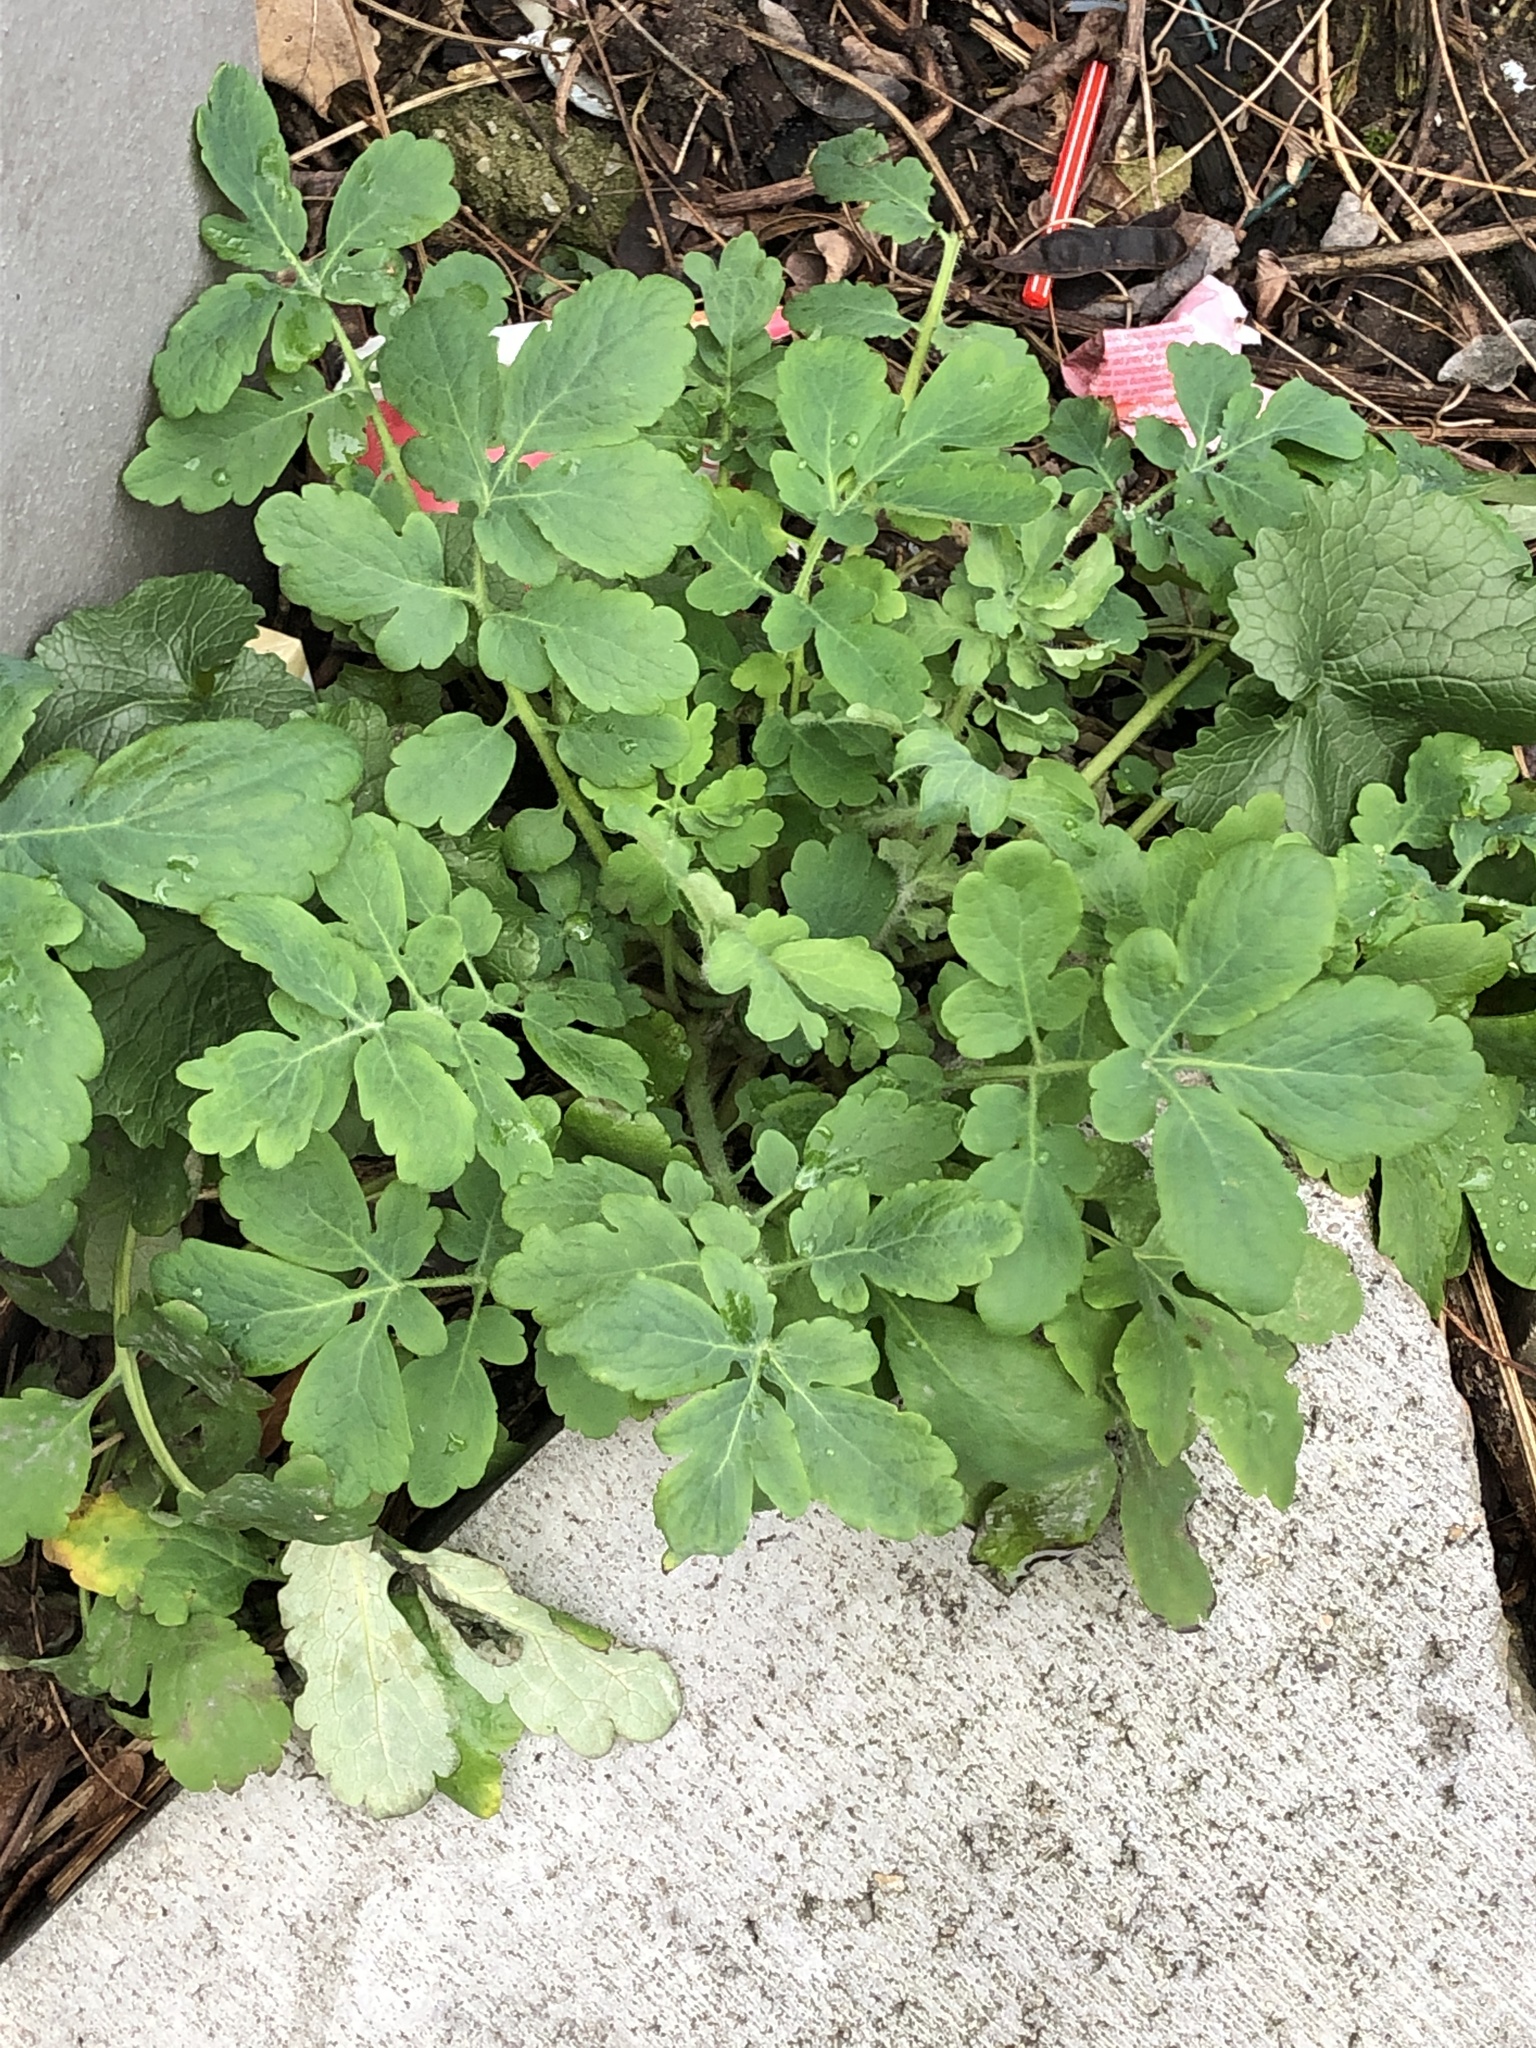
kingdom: Plantae
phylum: Tracheophyta
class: Magnoliopsida
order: Ranunculales
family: Papaveraceae
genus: Chelidonium
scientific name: Chelidonium majus
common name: Greater celandine
